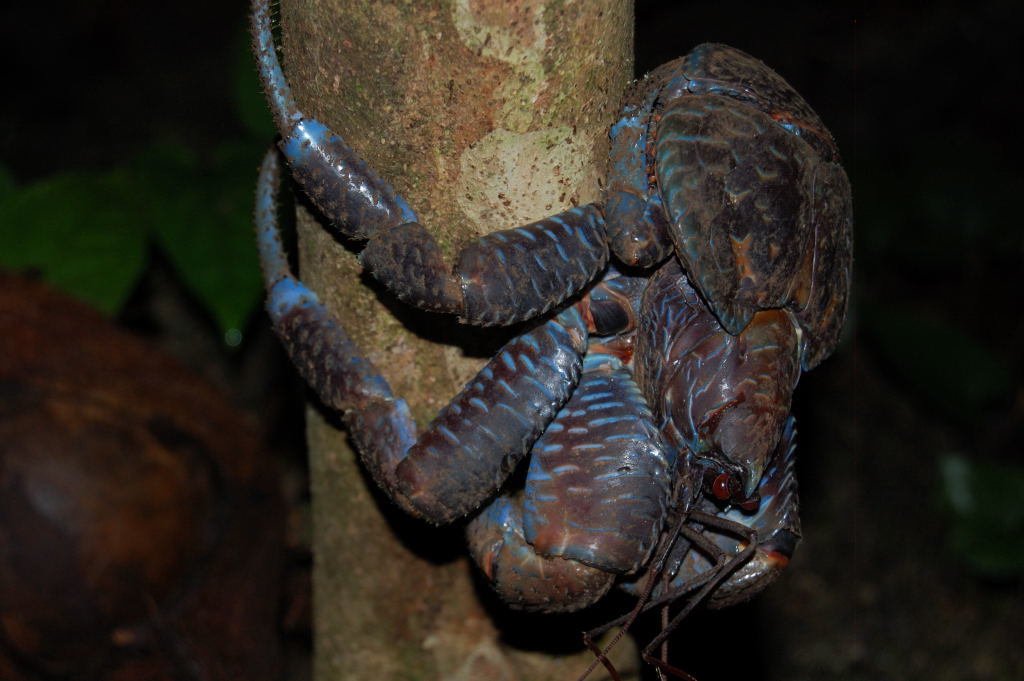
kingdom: Animalia
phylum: Arthropoda
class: Malacostraca
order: Decapoda
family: Coenobitidae
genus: Birgus
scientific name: Birgus latro
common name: Coconut crab
